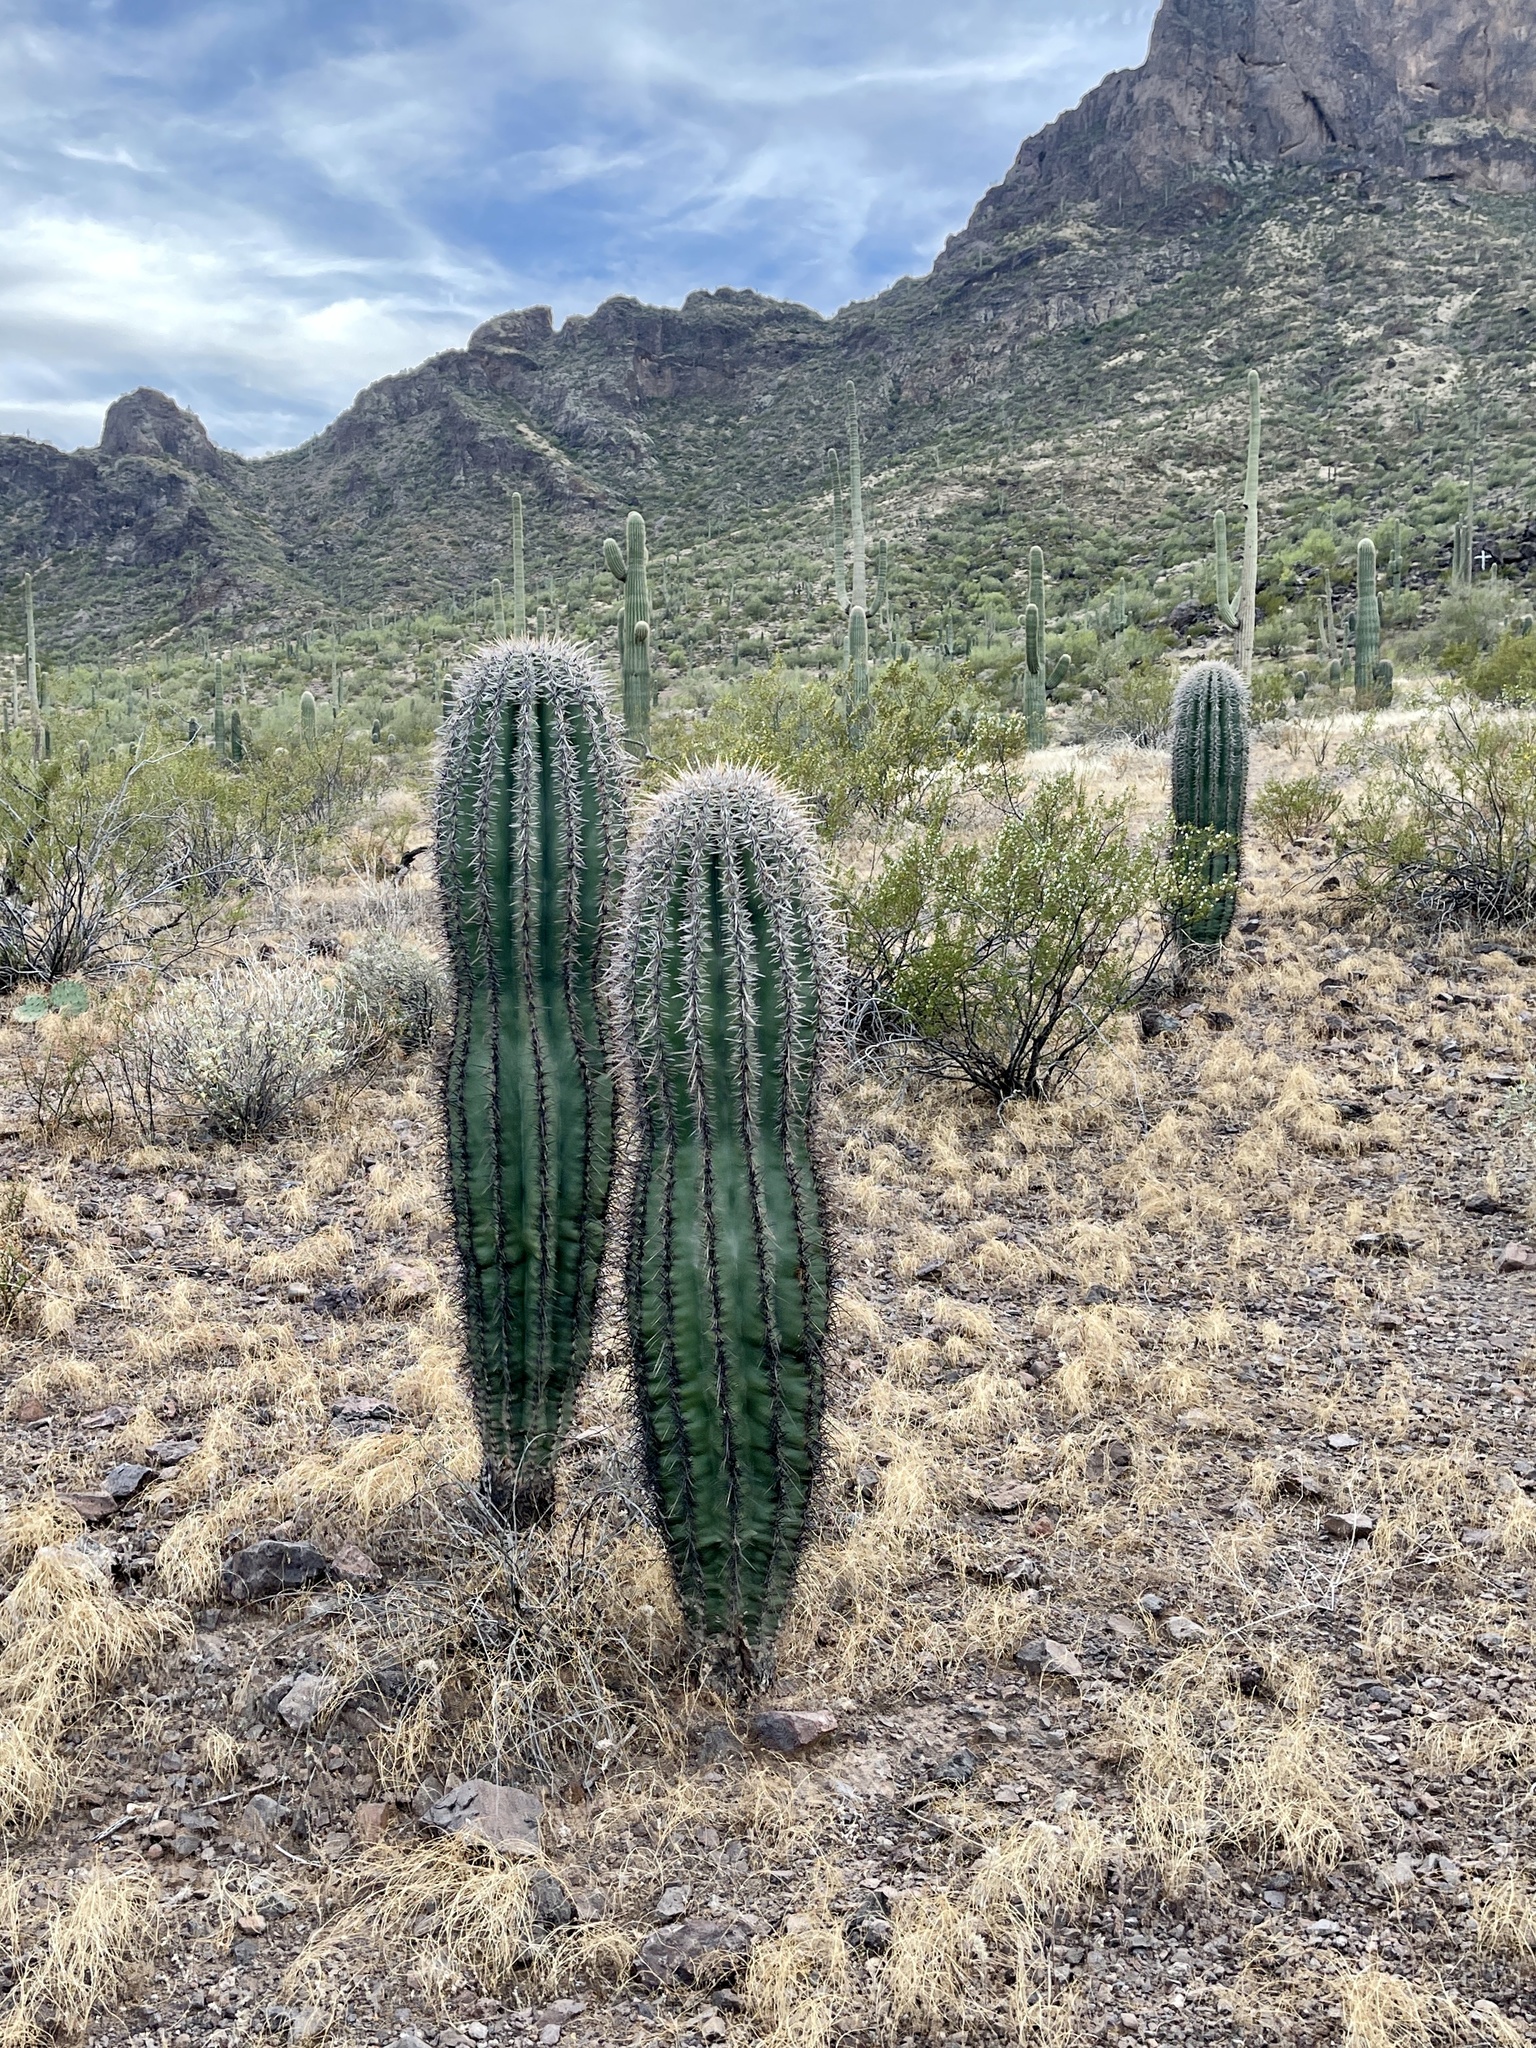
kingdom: Plantae
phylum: Tracheophyta
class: Magnoliopsida
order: Caryophyllales
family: Cactaceae
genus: Carnegiea
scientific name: Carnegiea gigantea
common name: Saguaro
